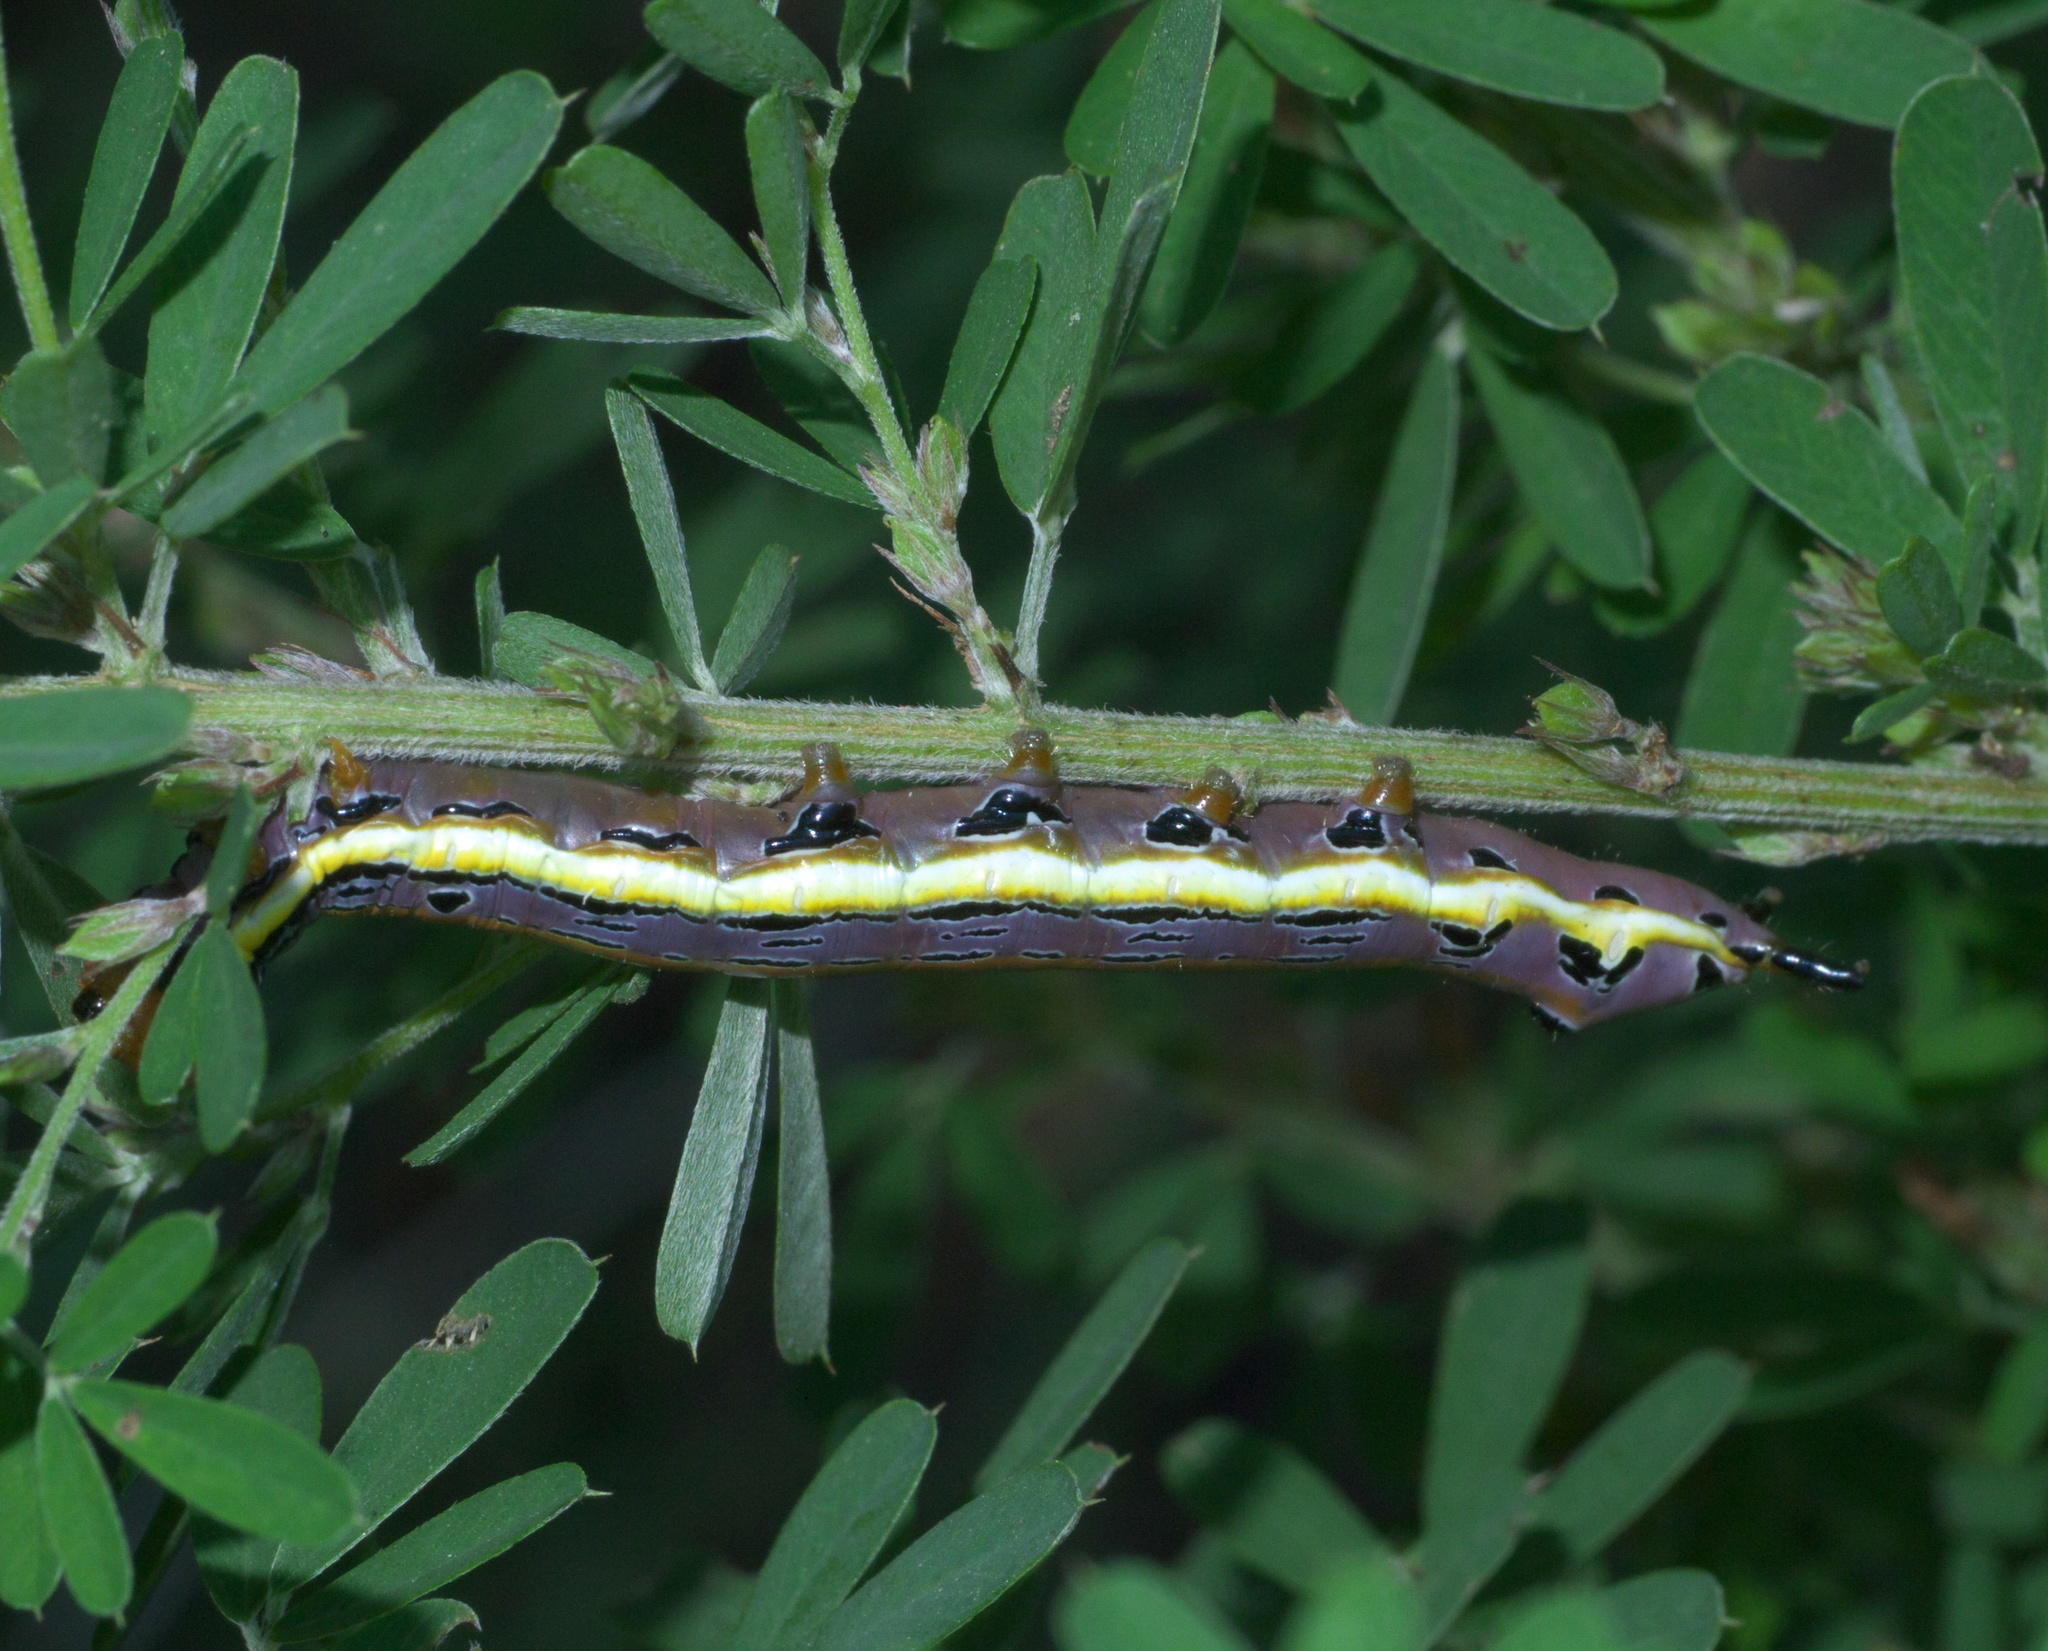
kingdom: Animalia
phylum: Arthropoda
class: Insecta
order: Lepidoptera
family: Notodontidae
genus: Dasylophia
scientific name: Dasylophia anguina
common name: Black-spotted prominent
